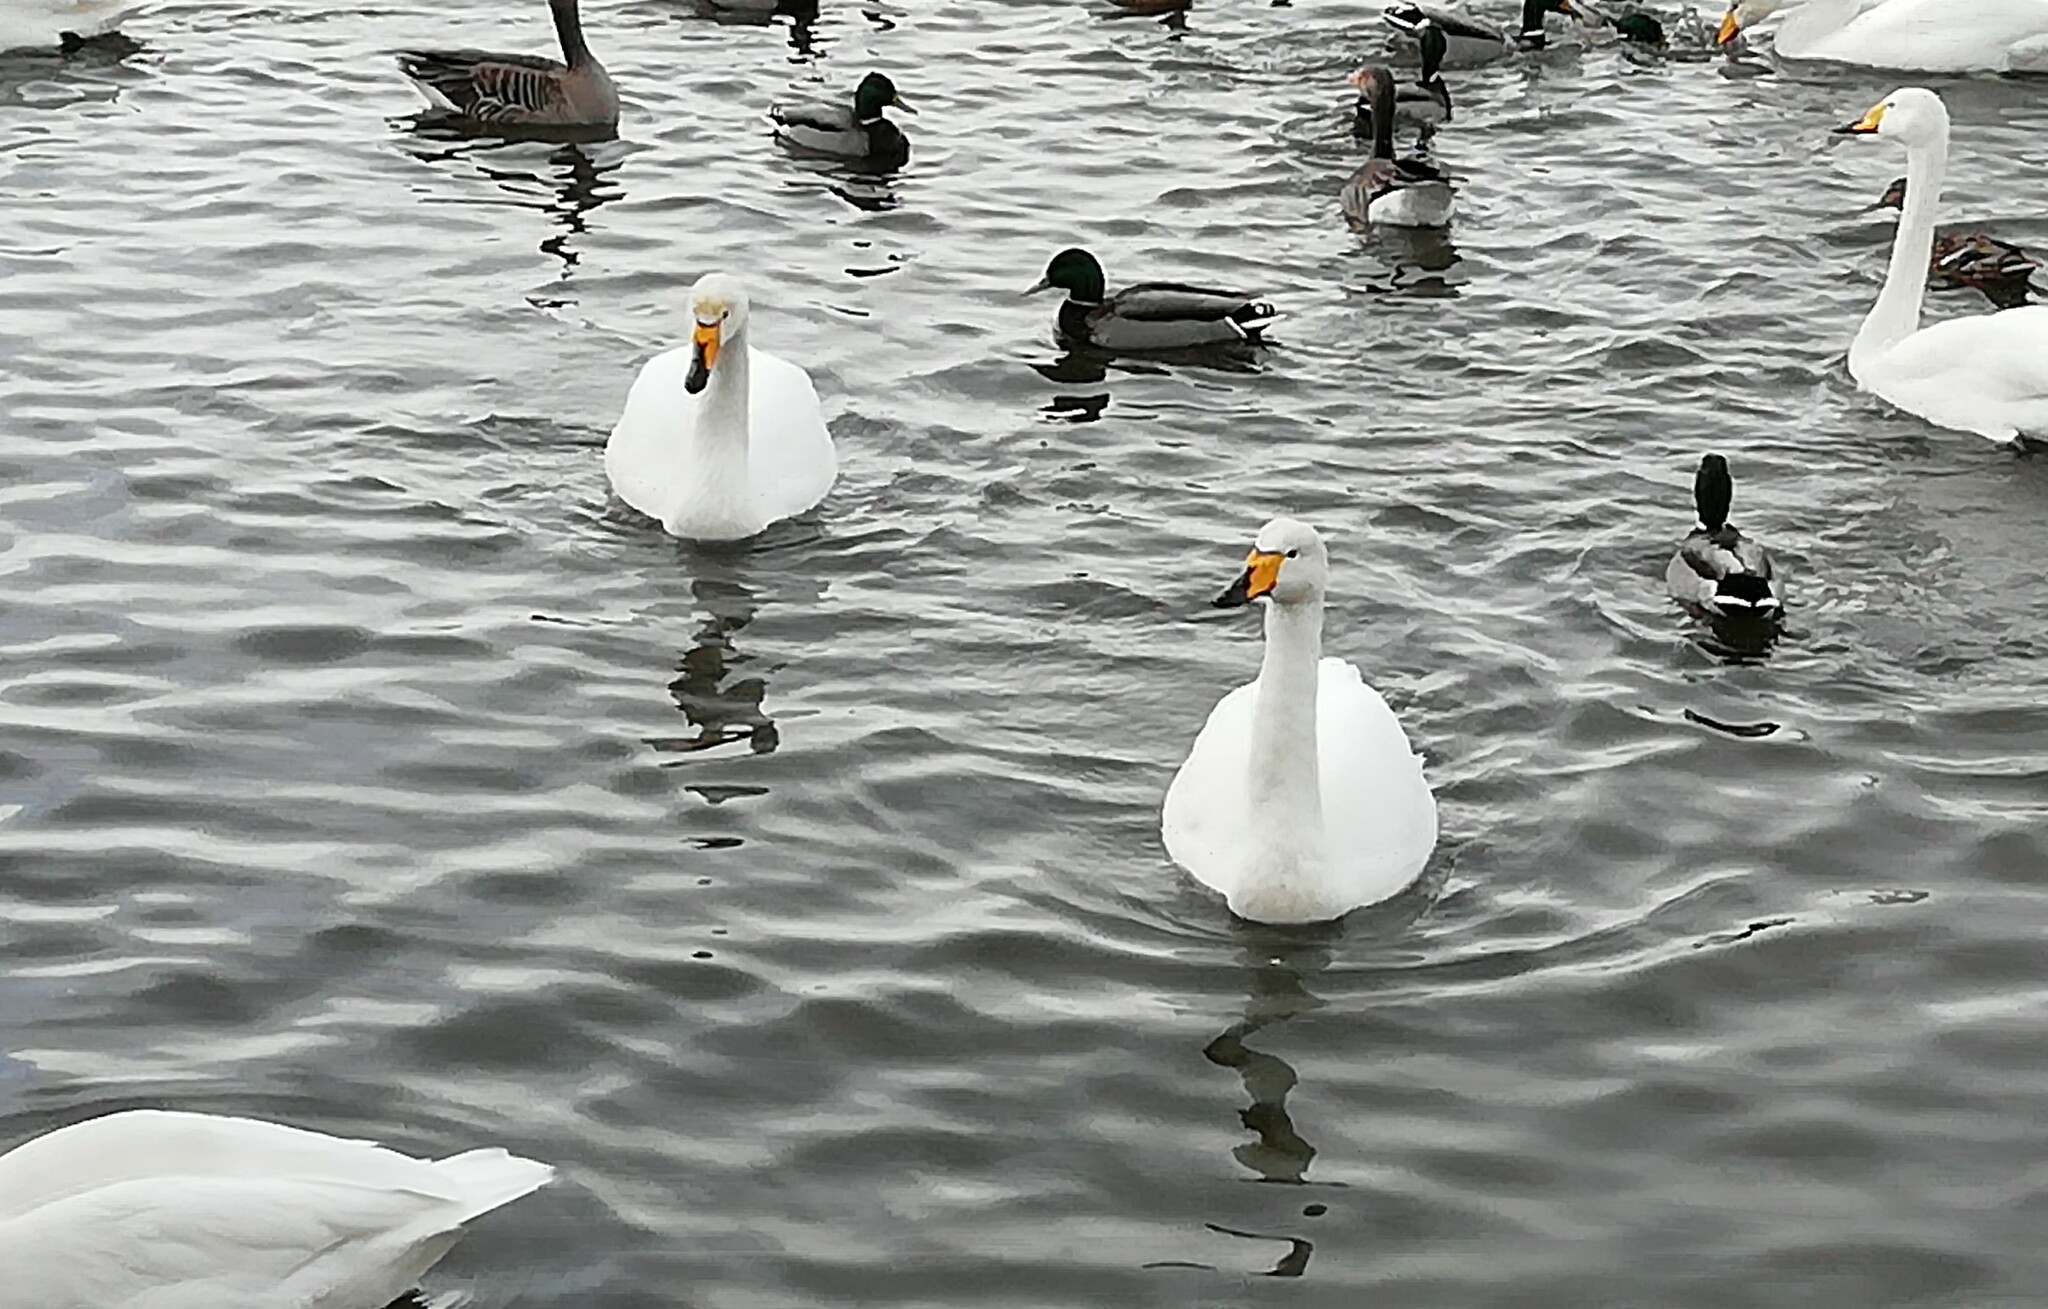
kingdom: Animalia
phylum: Chordata
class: Aves
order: Anseriformes
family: Anatidae
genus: Cygnus
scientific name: Cygnus cygnus
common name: Whooper swan
